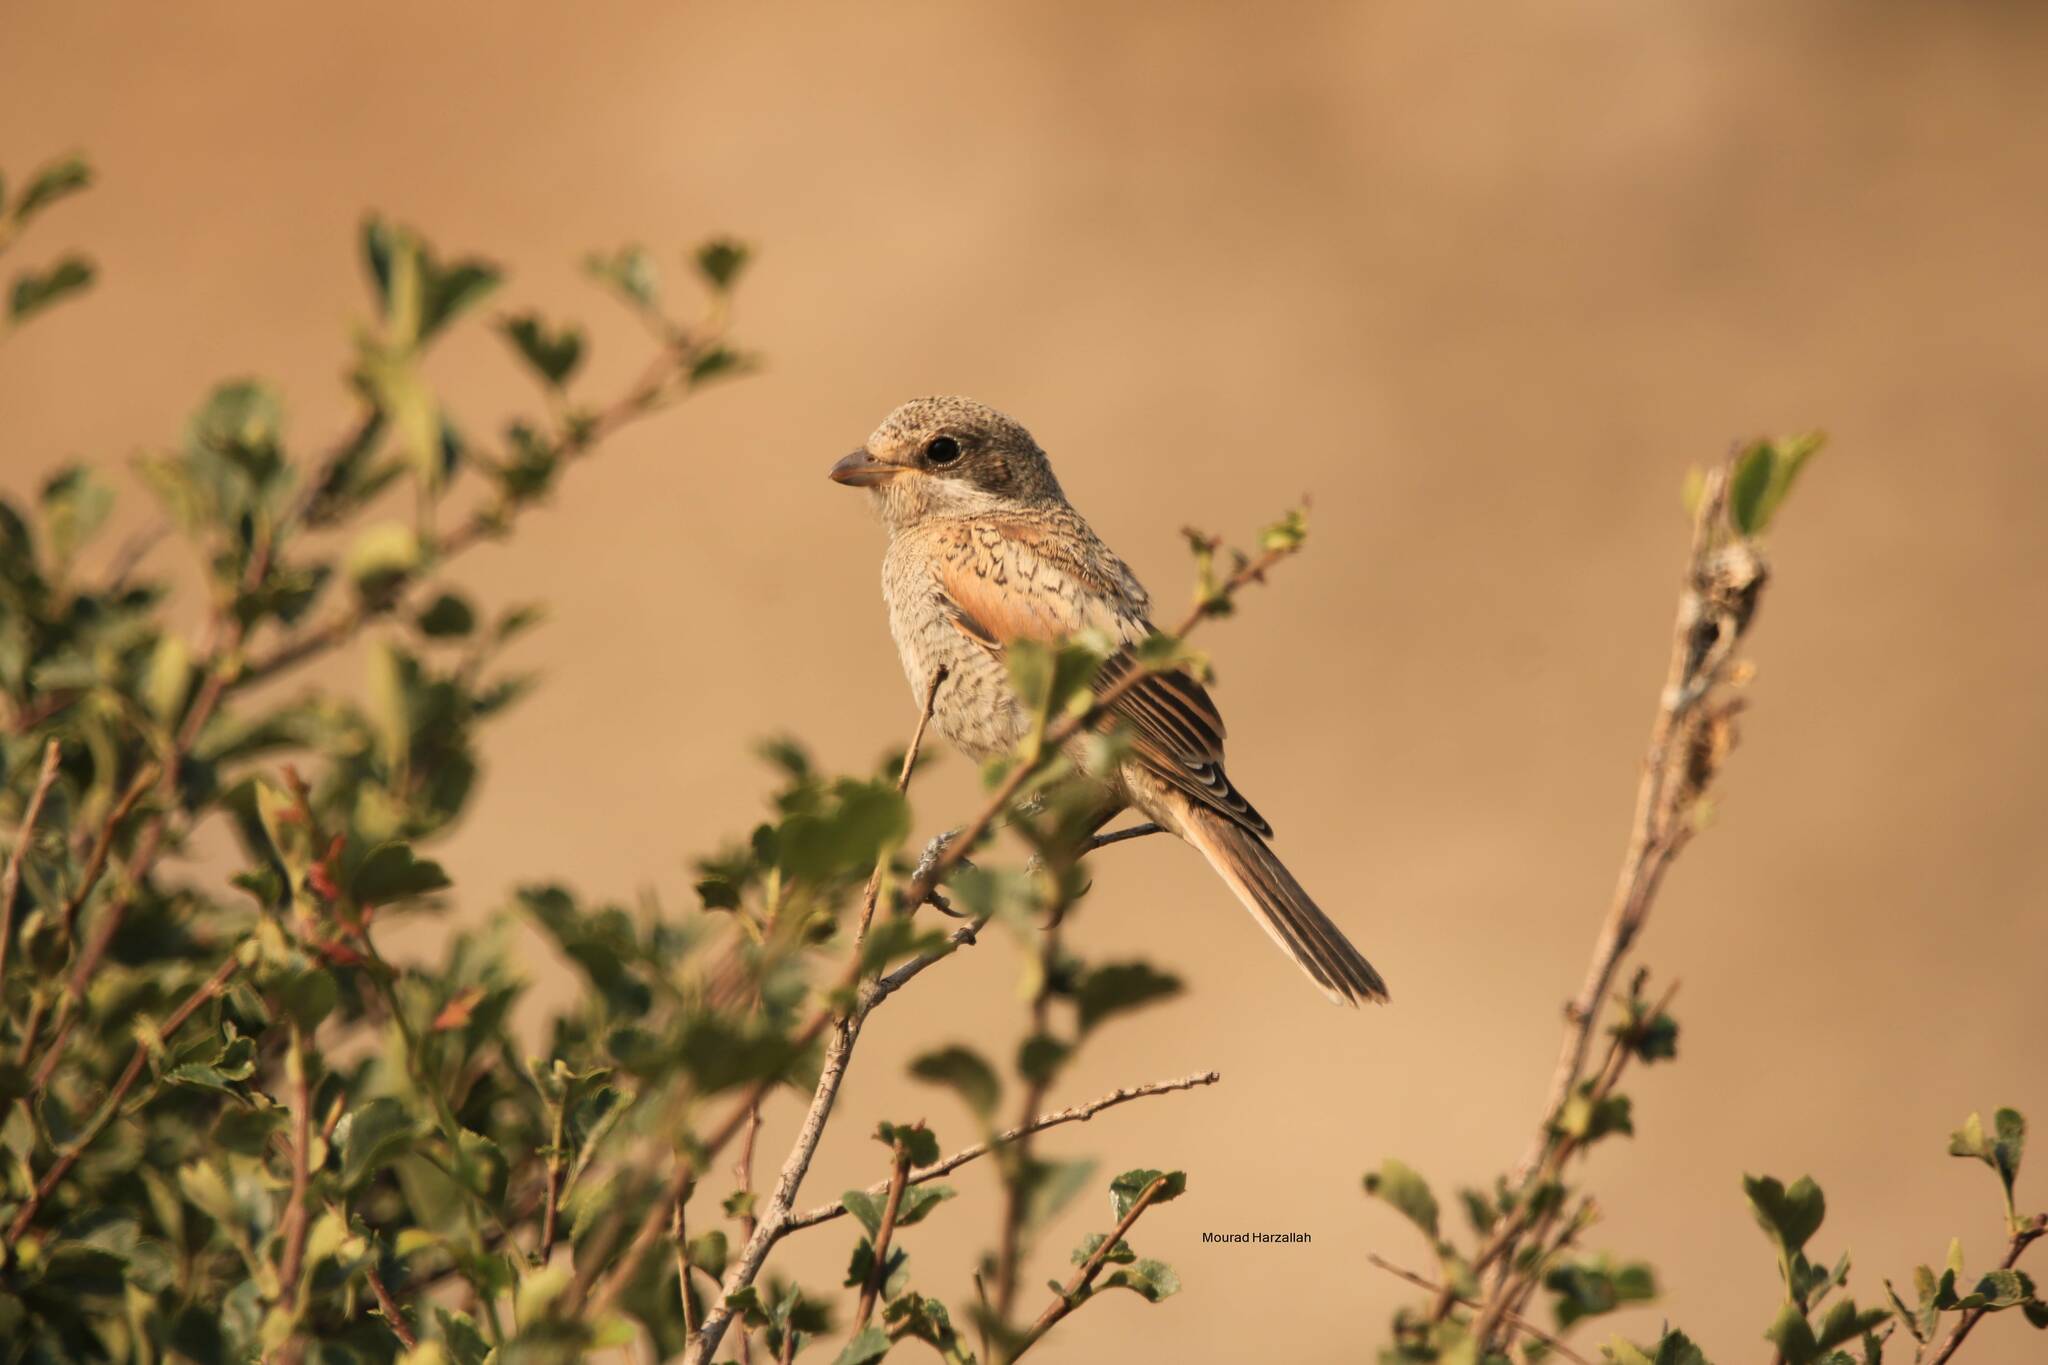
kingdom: Animalia
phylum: Chordata
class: Aves
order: Passeriformes
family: Laniidae
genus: Lanius
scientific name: Lanius senator
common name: Woodchat shrike
